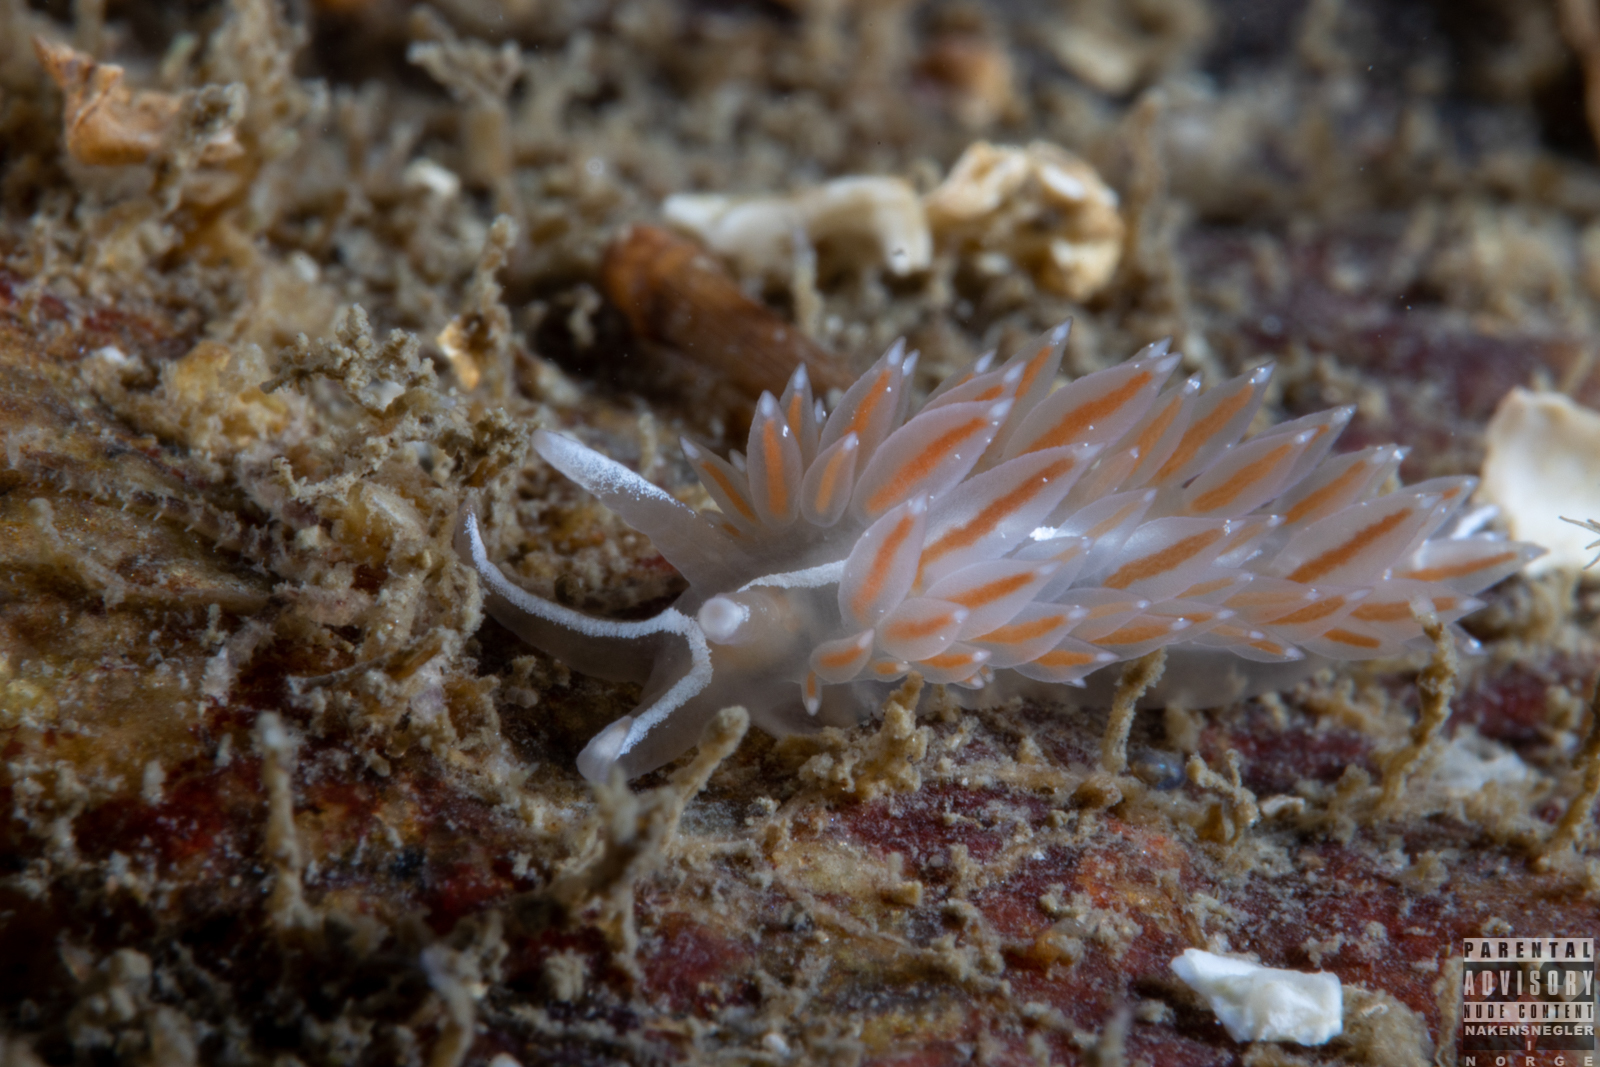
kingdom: Animalia
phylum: Mollusca
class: Gastropoda
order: Nudibranchia
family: Coryphellidae
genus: Coryphella
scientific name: Coryphella monicae
